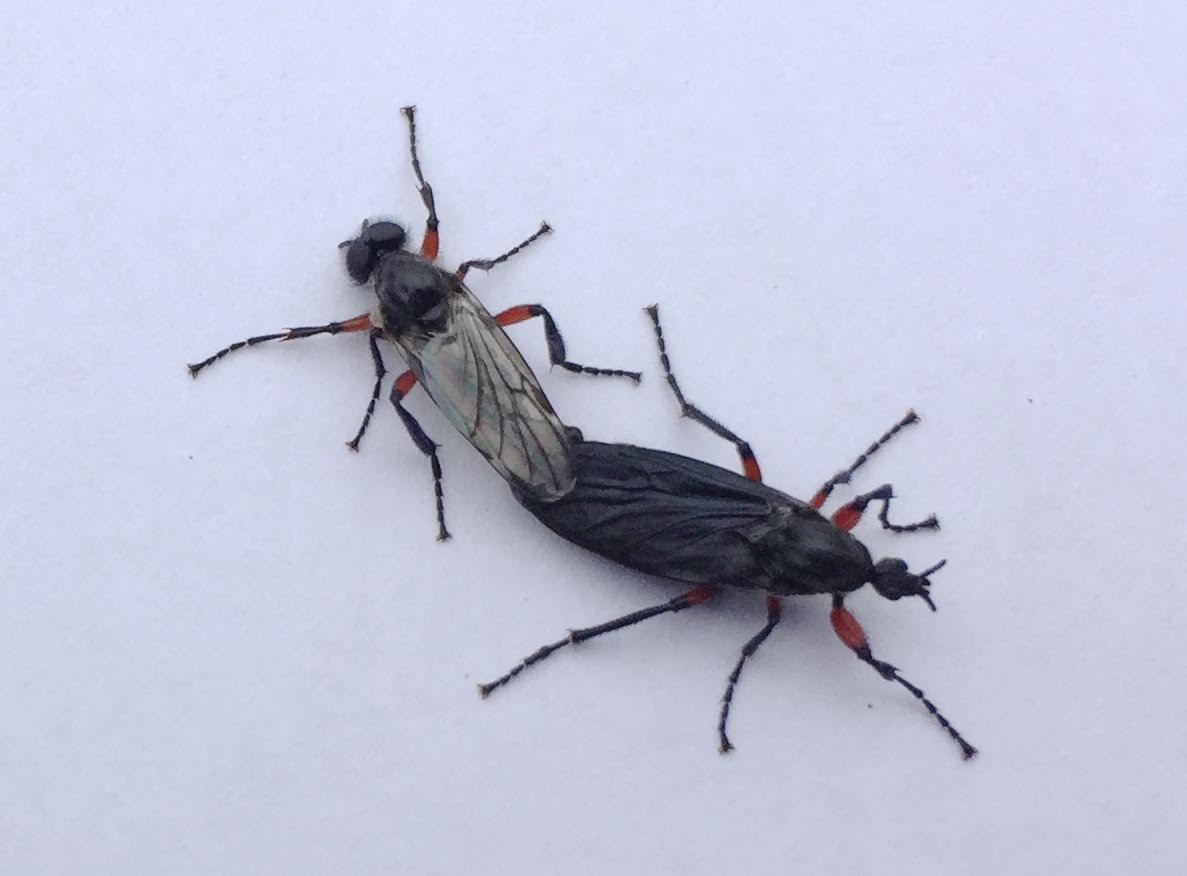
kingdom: Animalia
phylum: Arthropoda
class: Insecta
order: Diptera
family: Bibionidae
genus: Bibio
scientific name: Bibio femoratus
